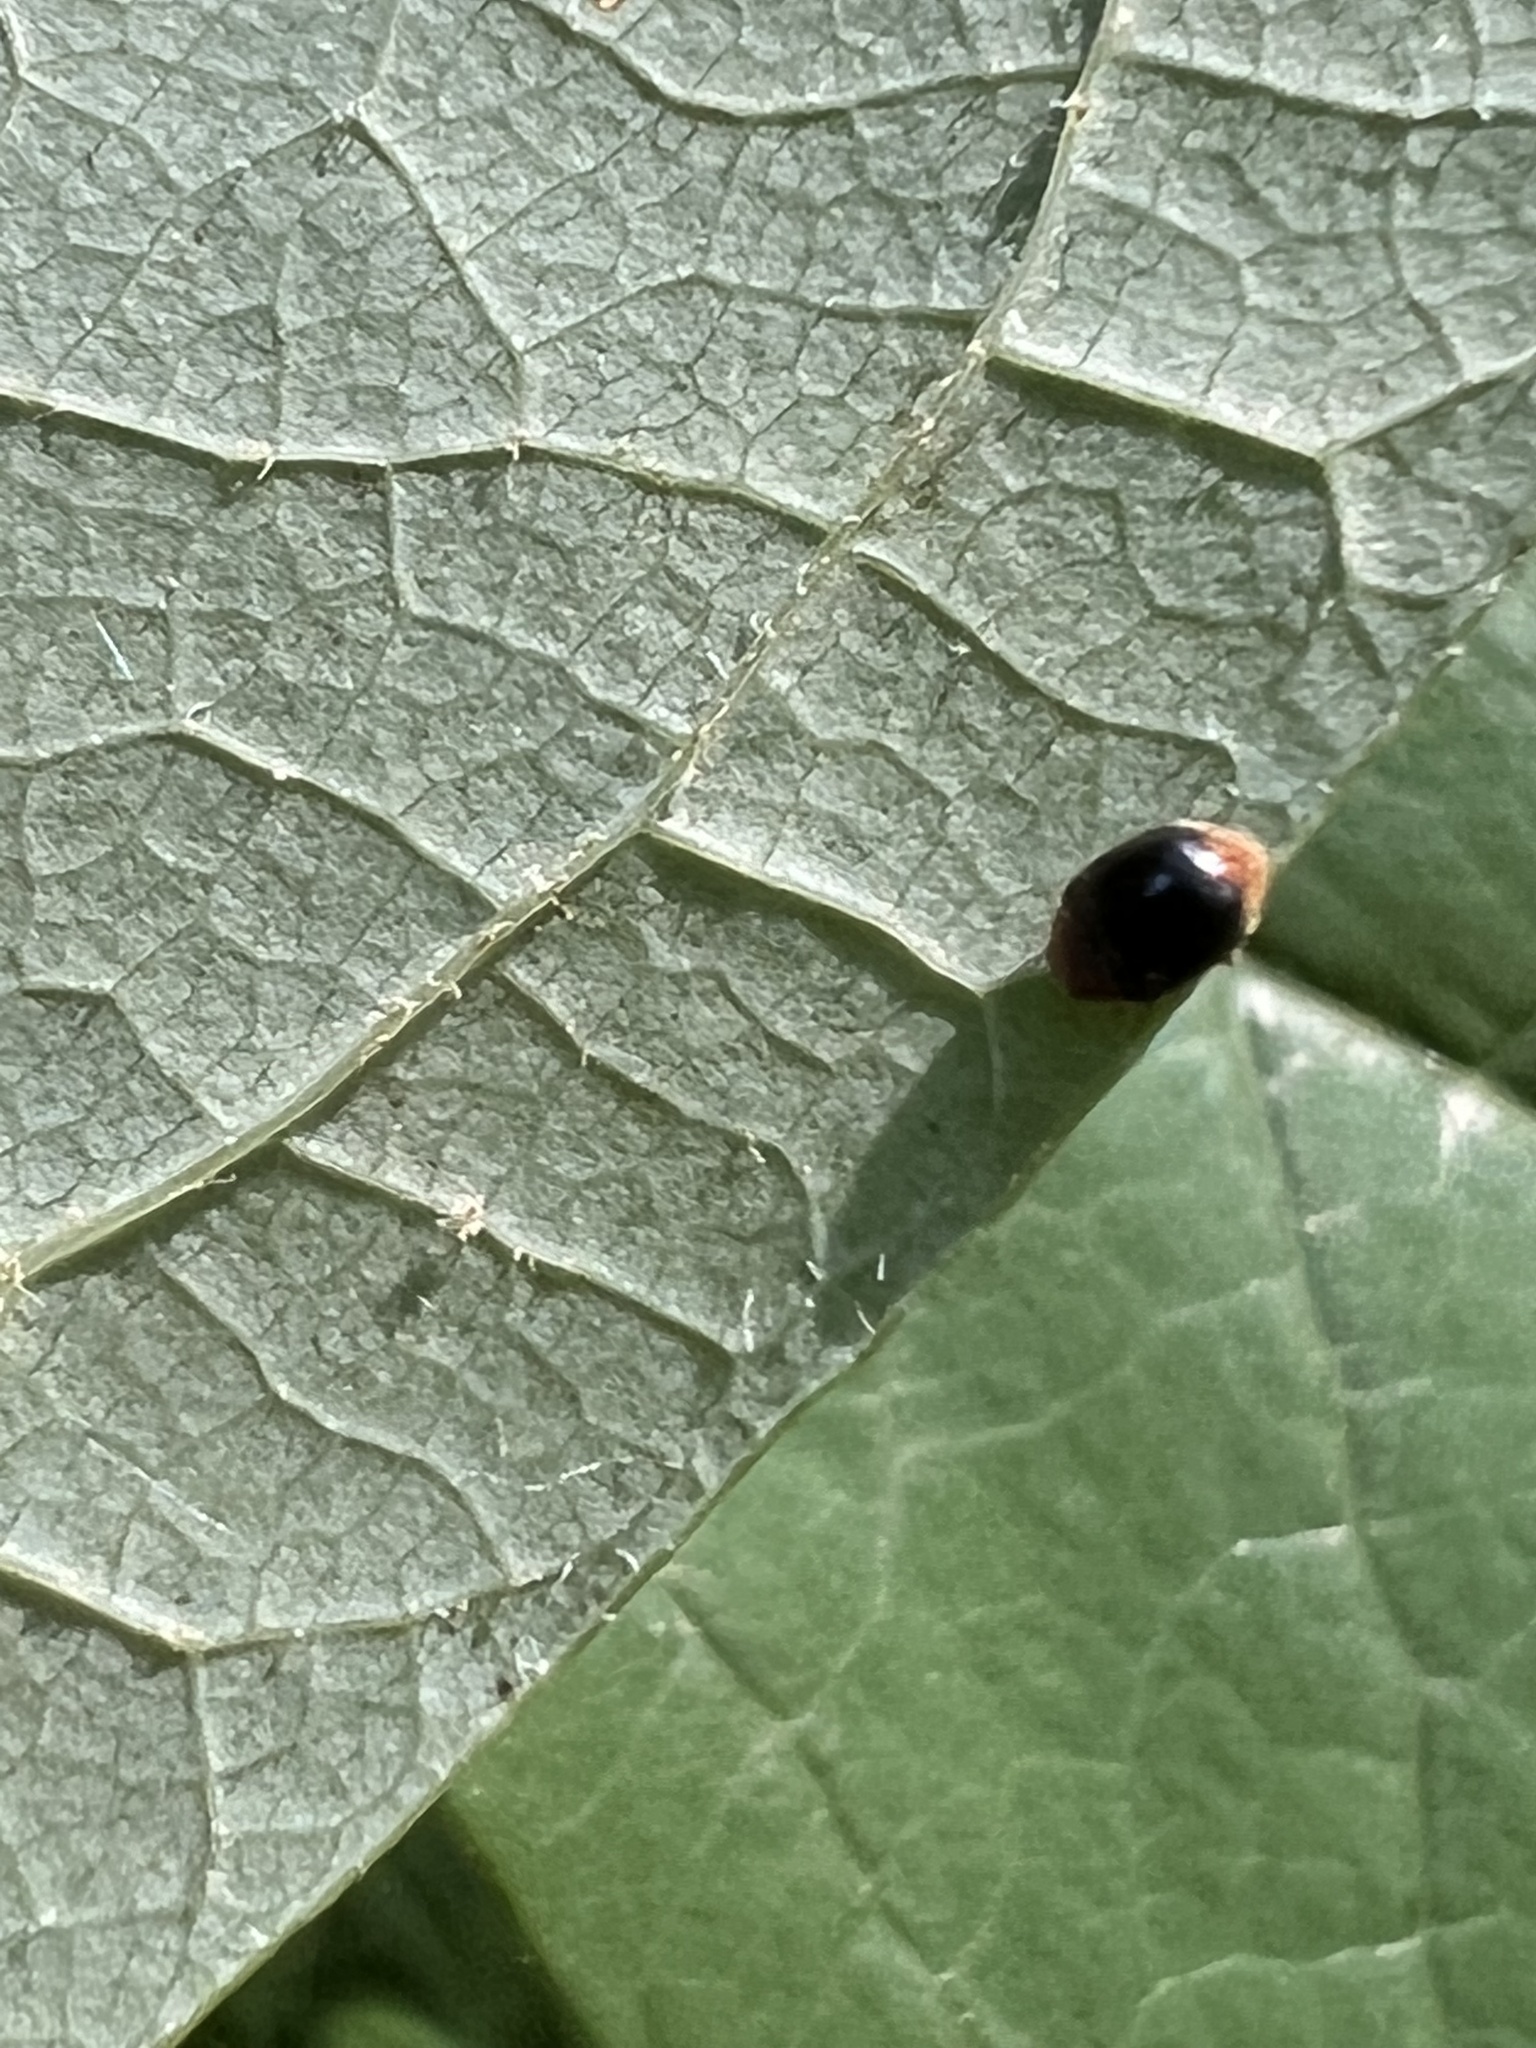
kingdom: Animalia
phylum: Arthropoda
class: Insecta
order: Coleoptera
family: Coccinellidae
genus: Cryptolaemus
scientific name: Cryptolaemus montrouzieri
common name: Mealybug destroyer
